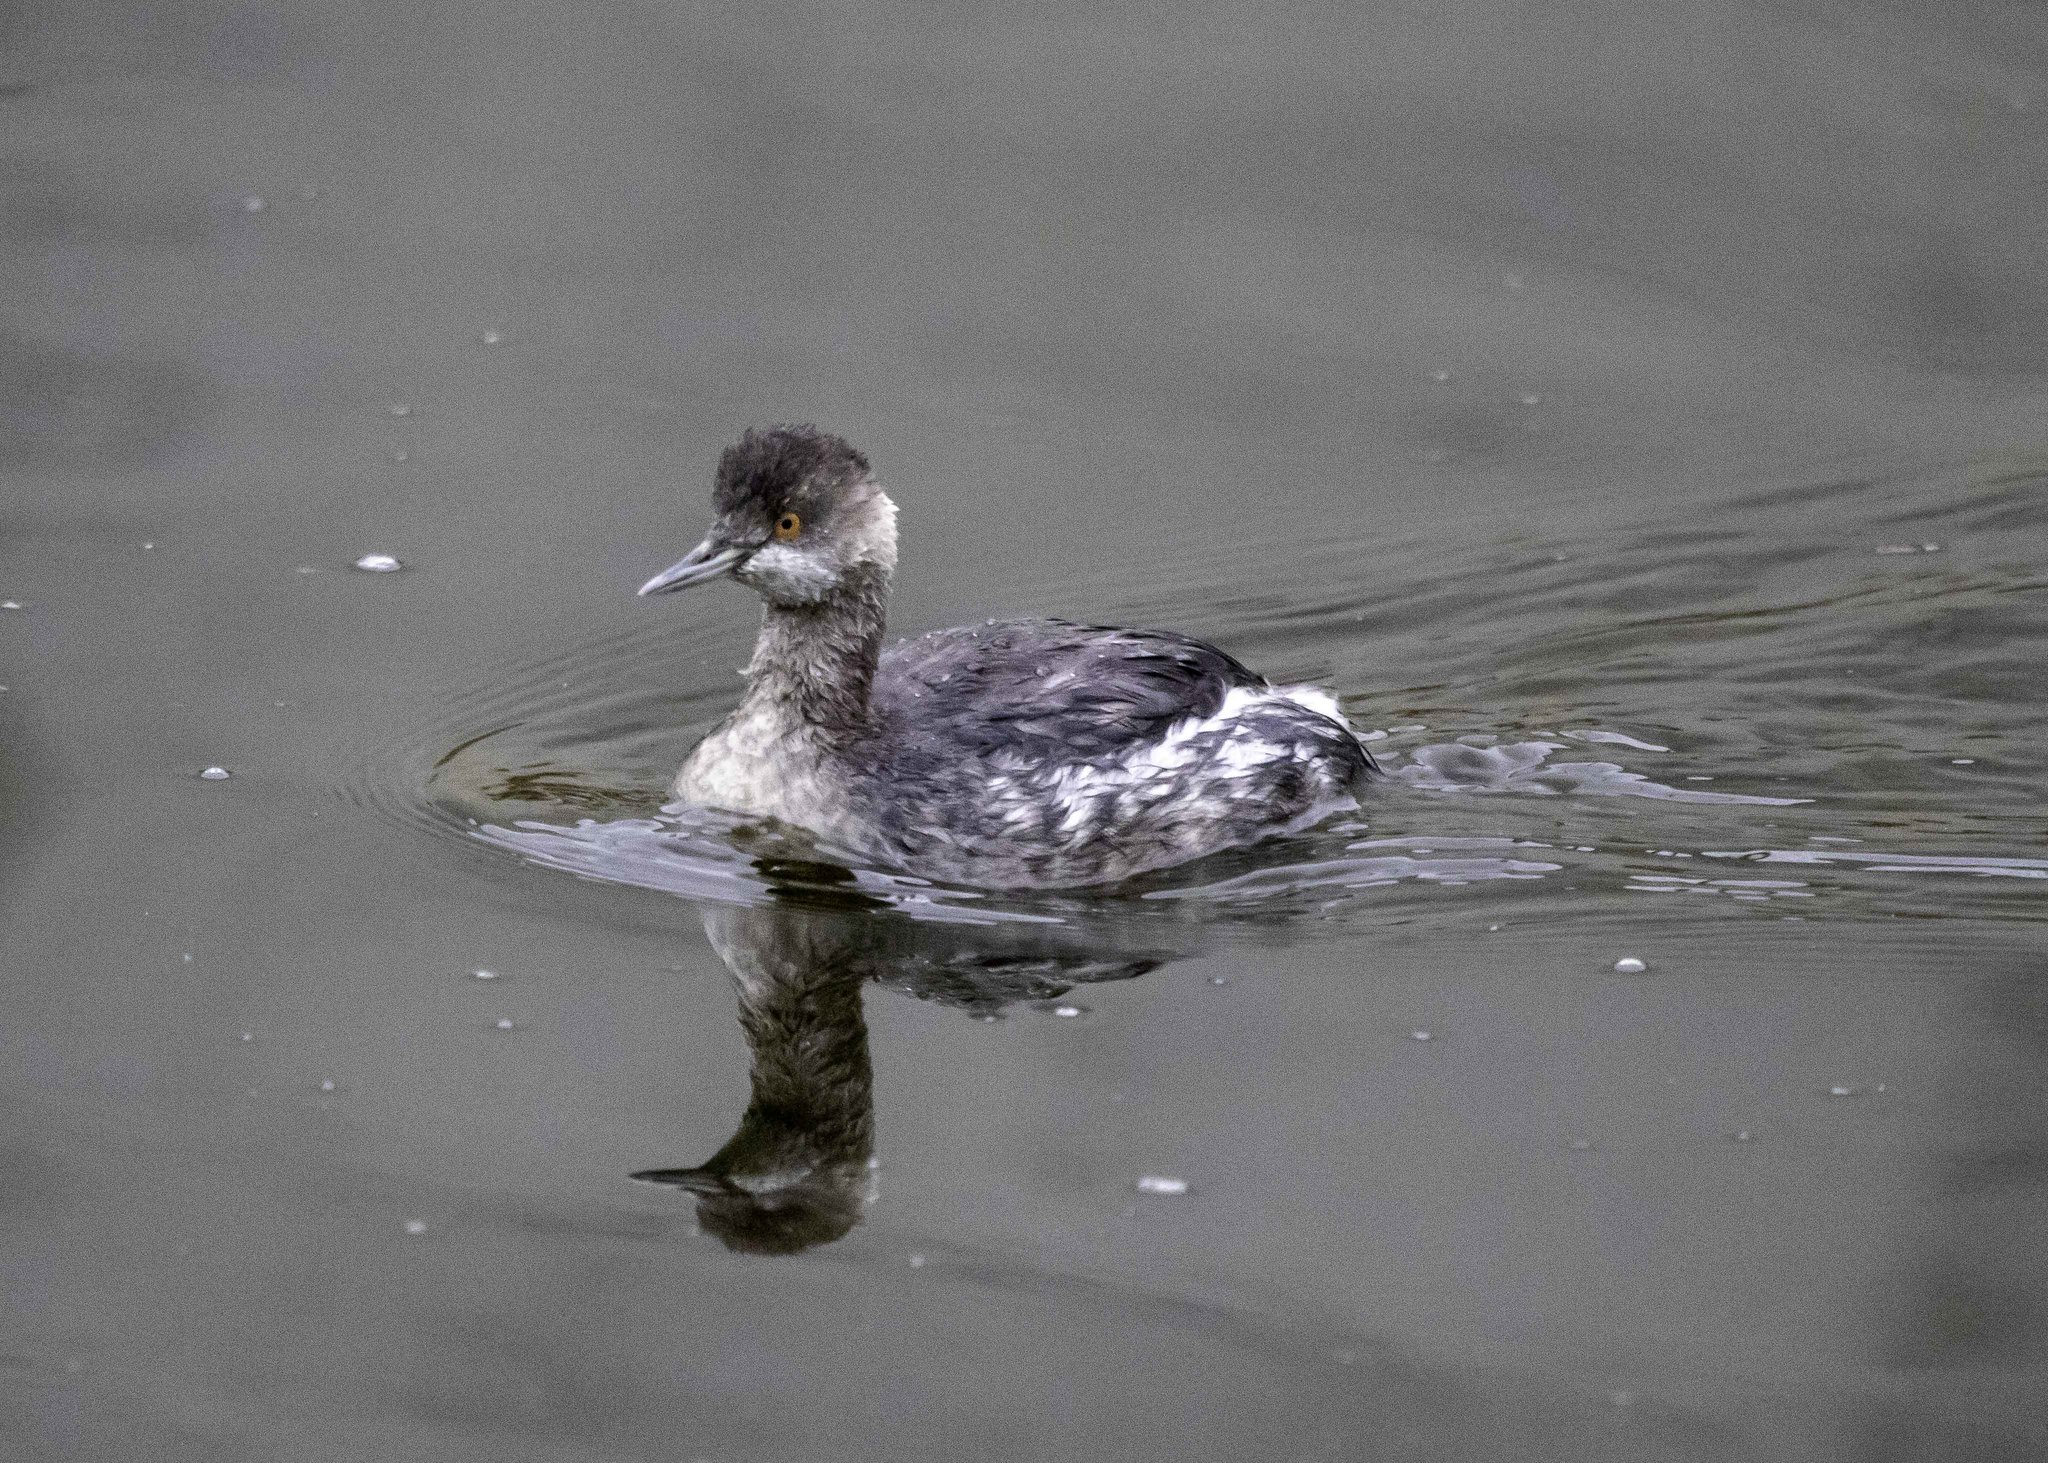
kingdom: Animalia
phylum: Chordata
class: Aves
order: Podicipediformes
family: Podicipedidae
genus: Podiceps
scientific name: Podiceps nigricollis
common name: Black-necked grebe
